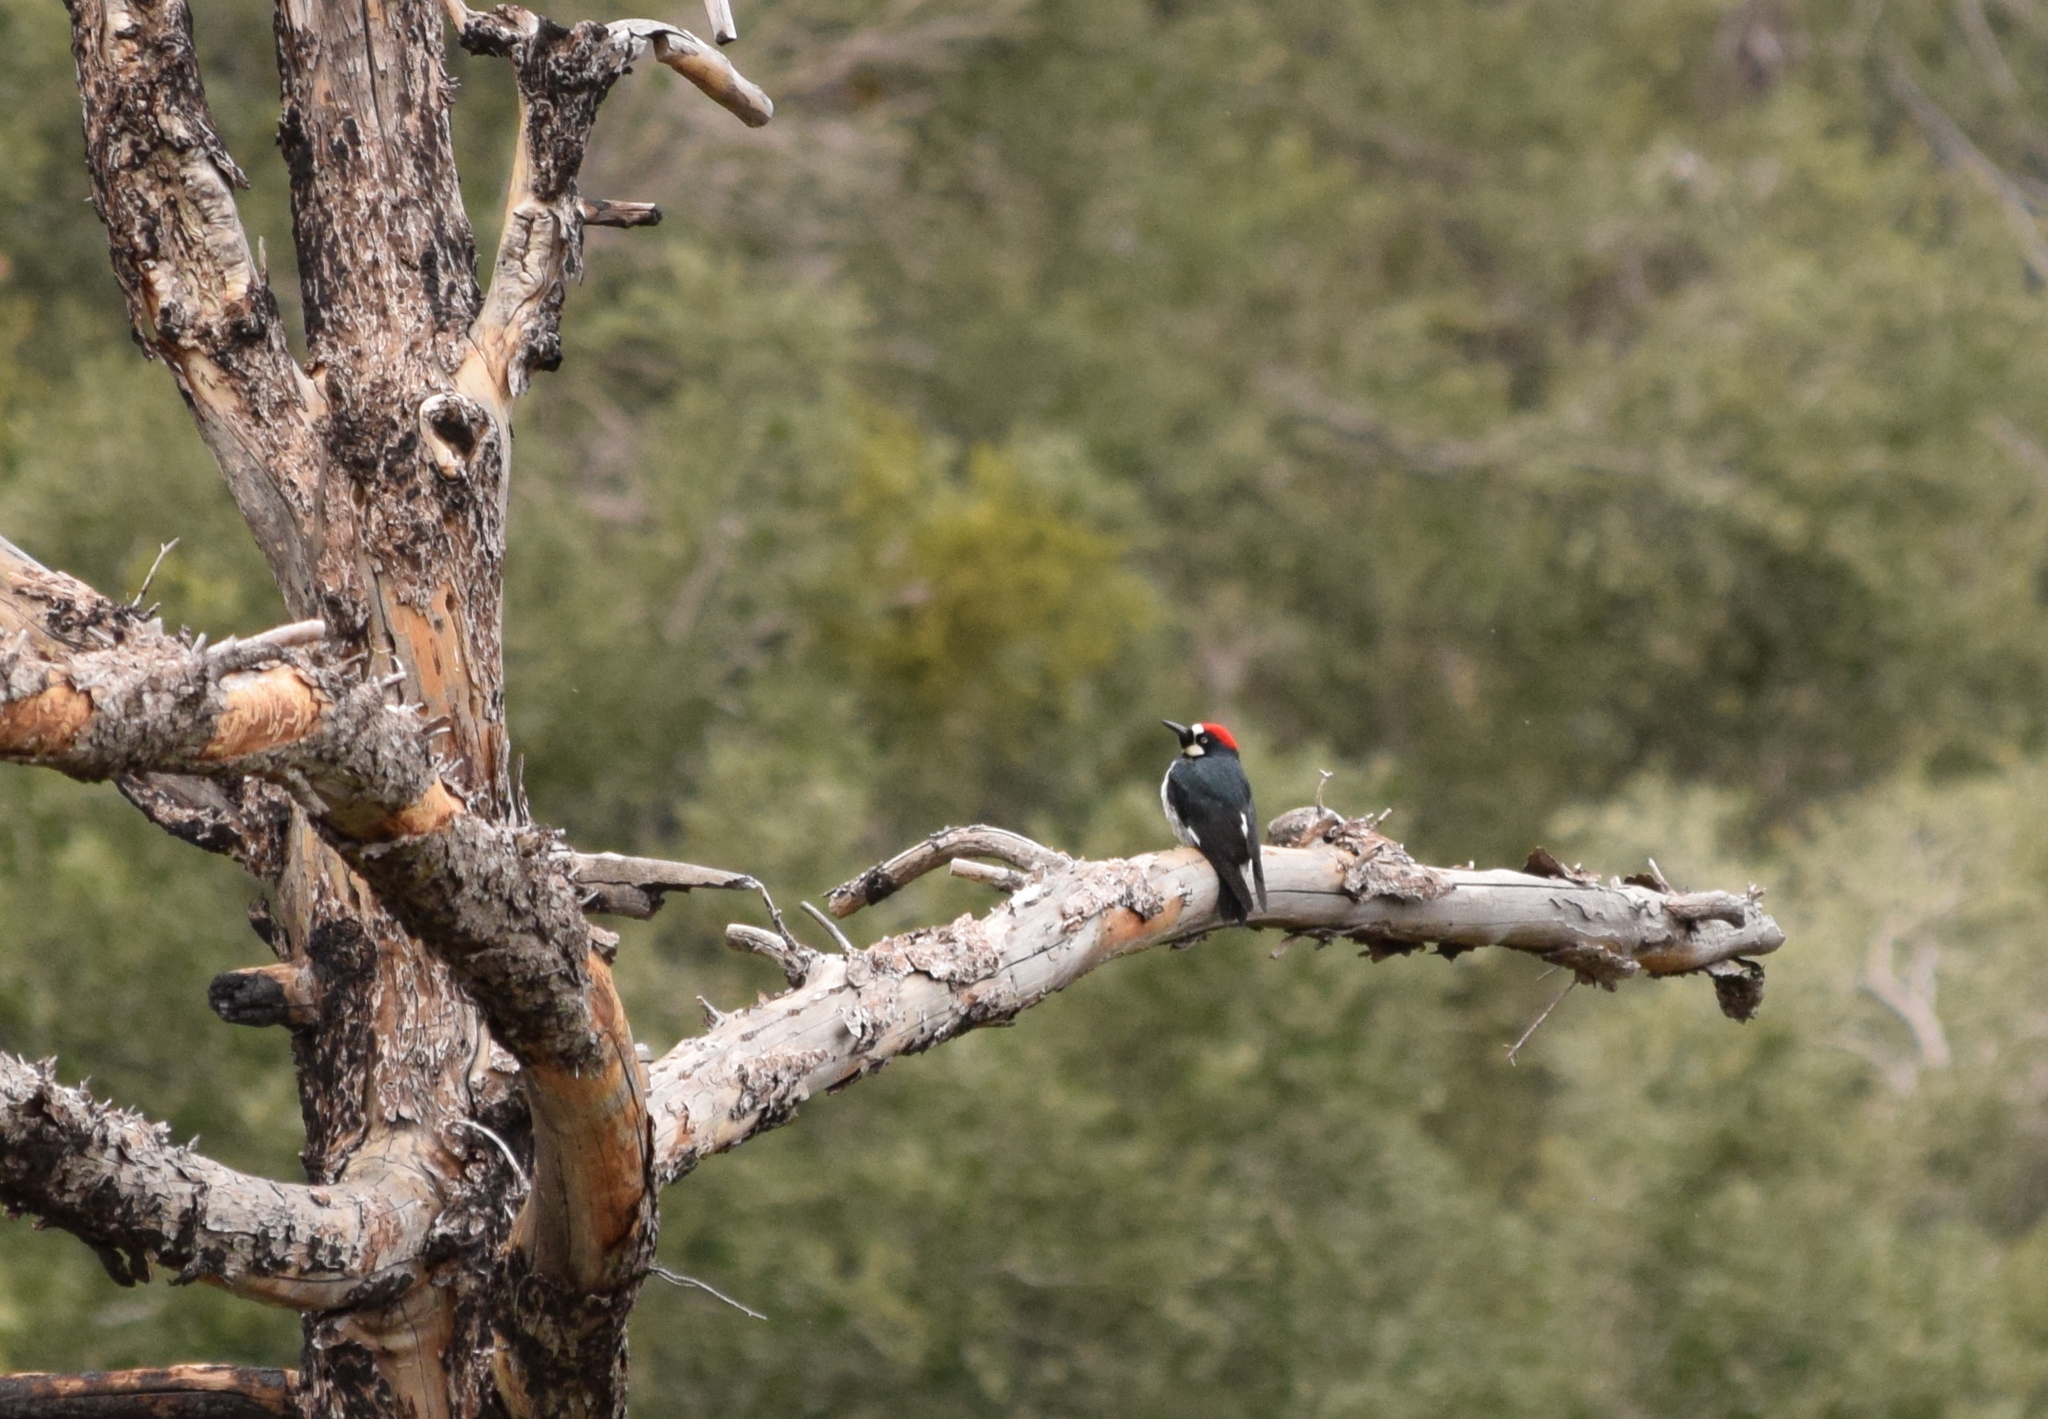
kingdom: Animalia
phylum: Chordata
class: Aves
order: Piciformes
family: Picidae
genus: Melanerpes
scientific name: Melanerpes formicivorus
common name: Acorn woodpecker
